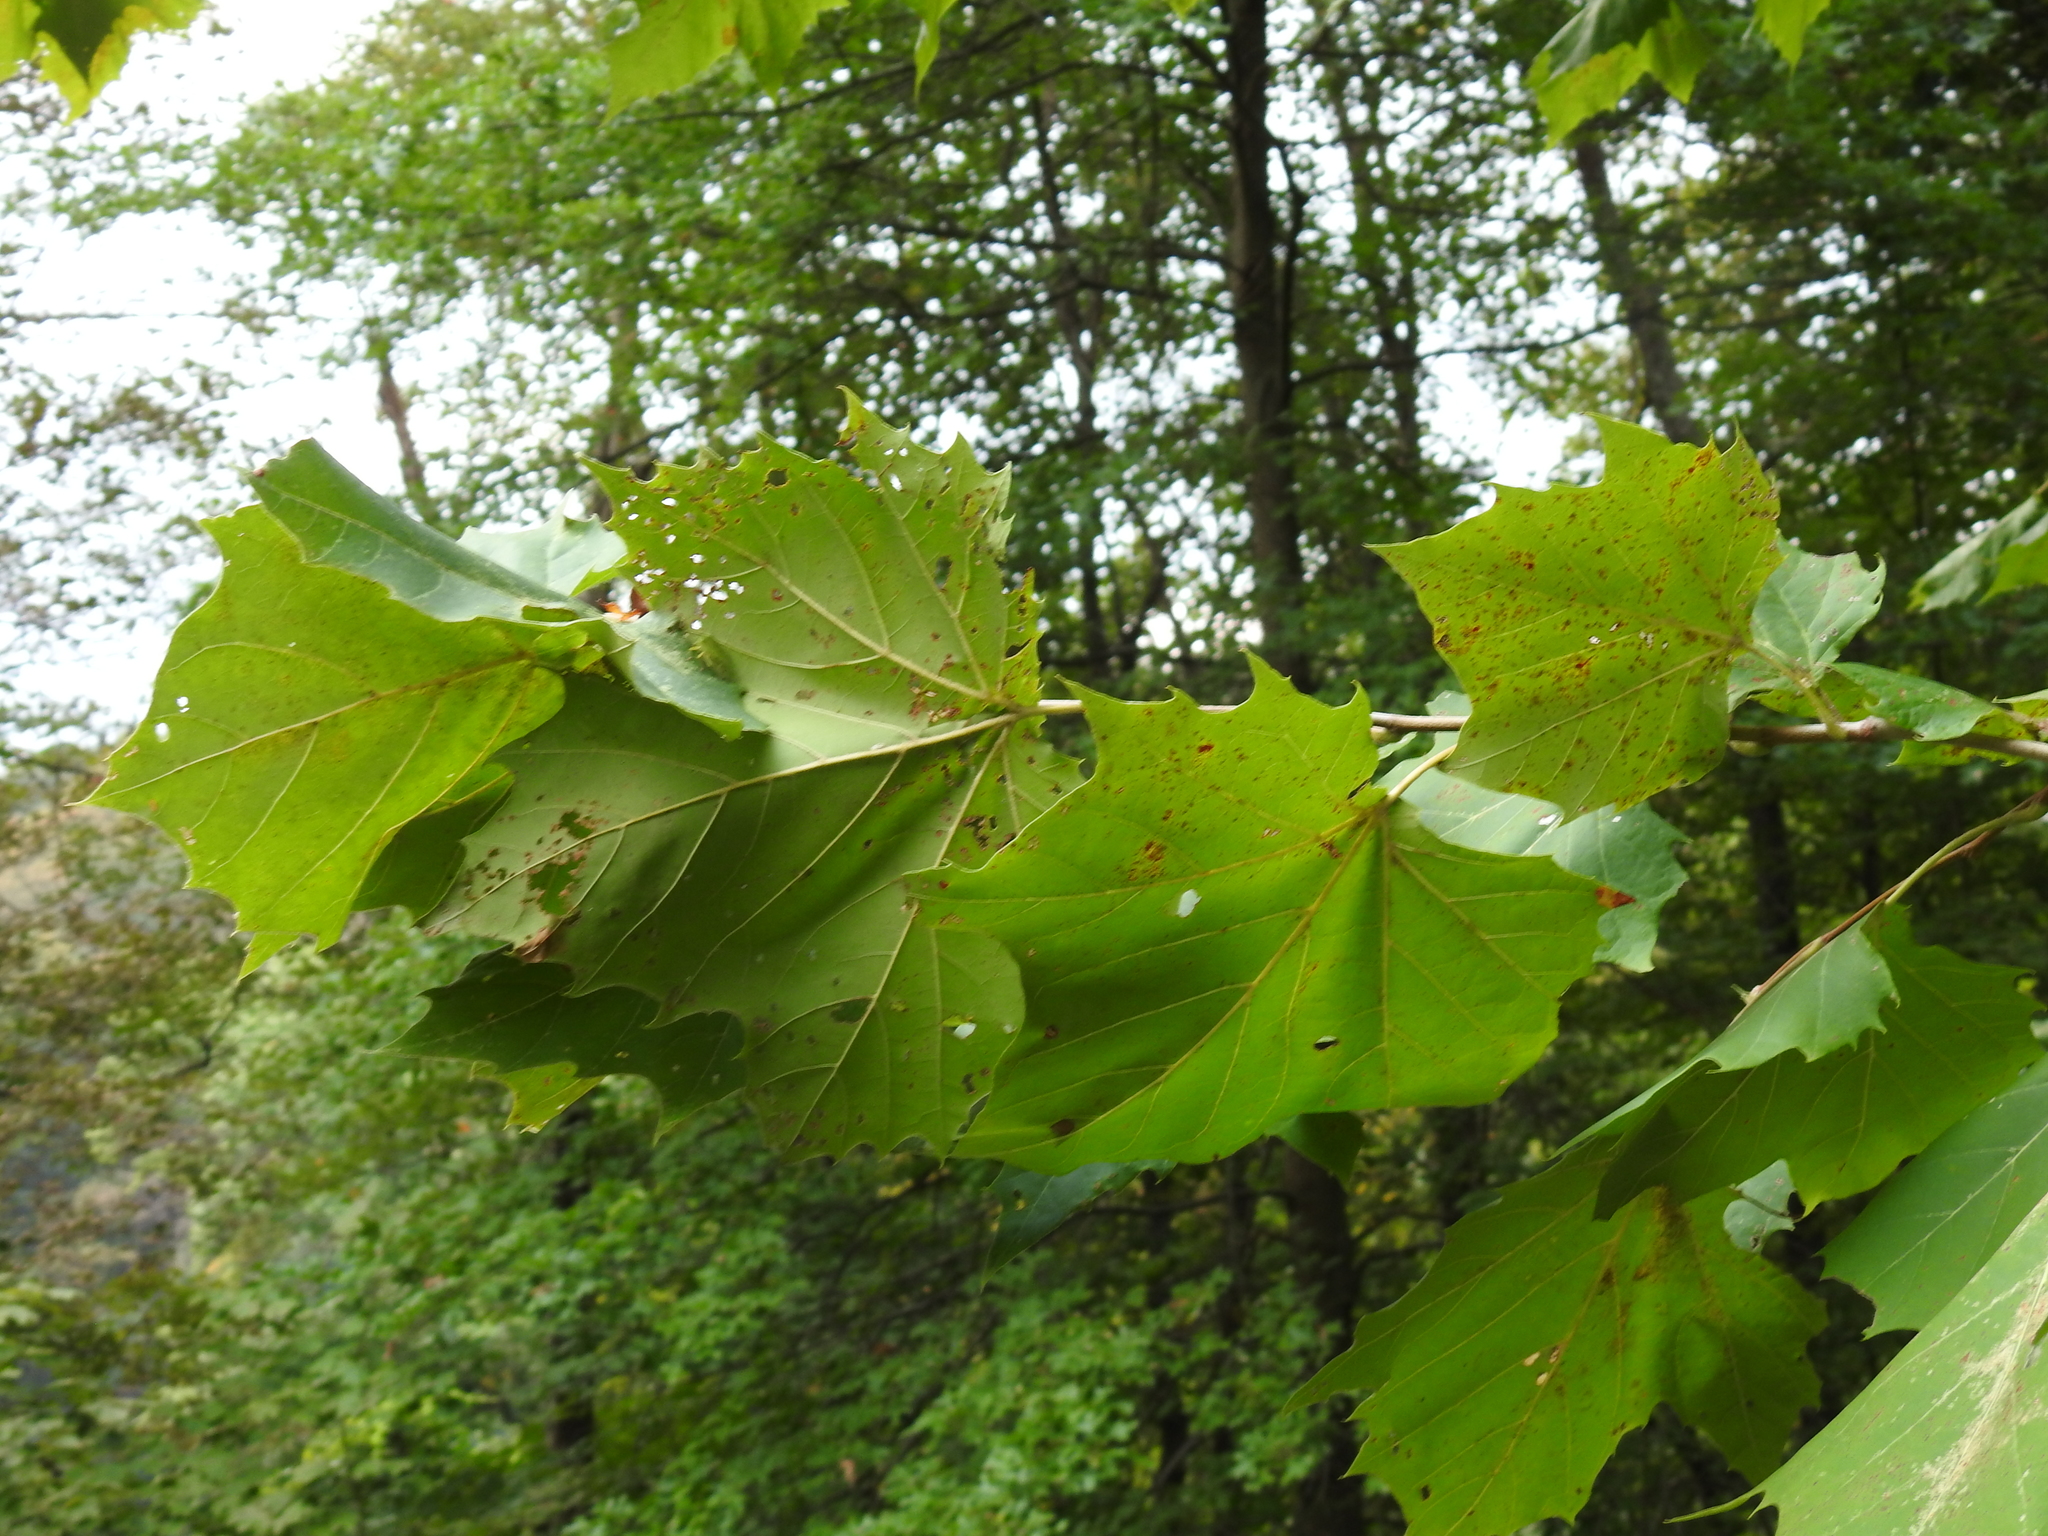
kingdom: Plantae
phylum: Tracheophyta
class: Magnoliopsida
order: Proteales
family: Platanaceae
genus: Platanus
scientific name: Platanus occidentalis
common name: American sycamore
